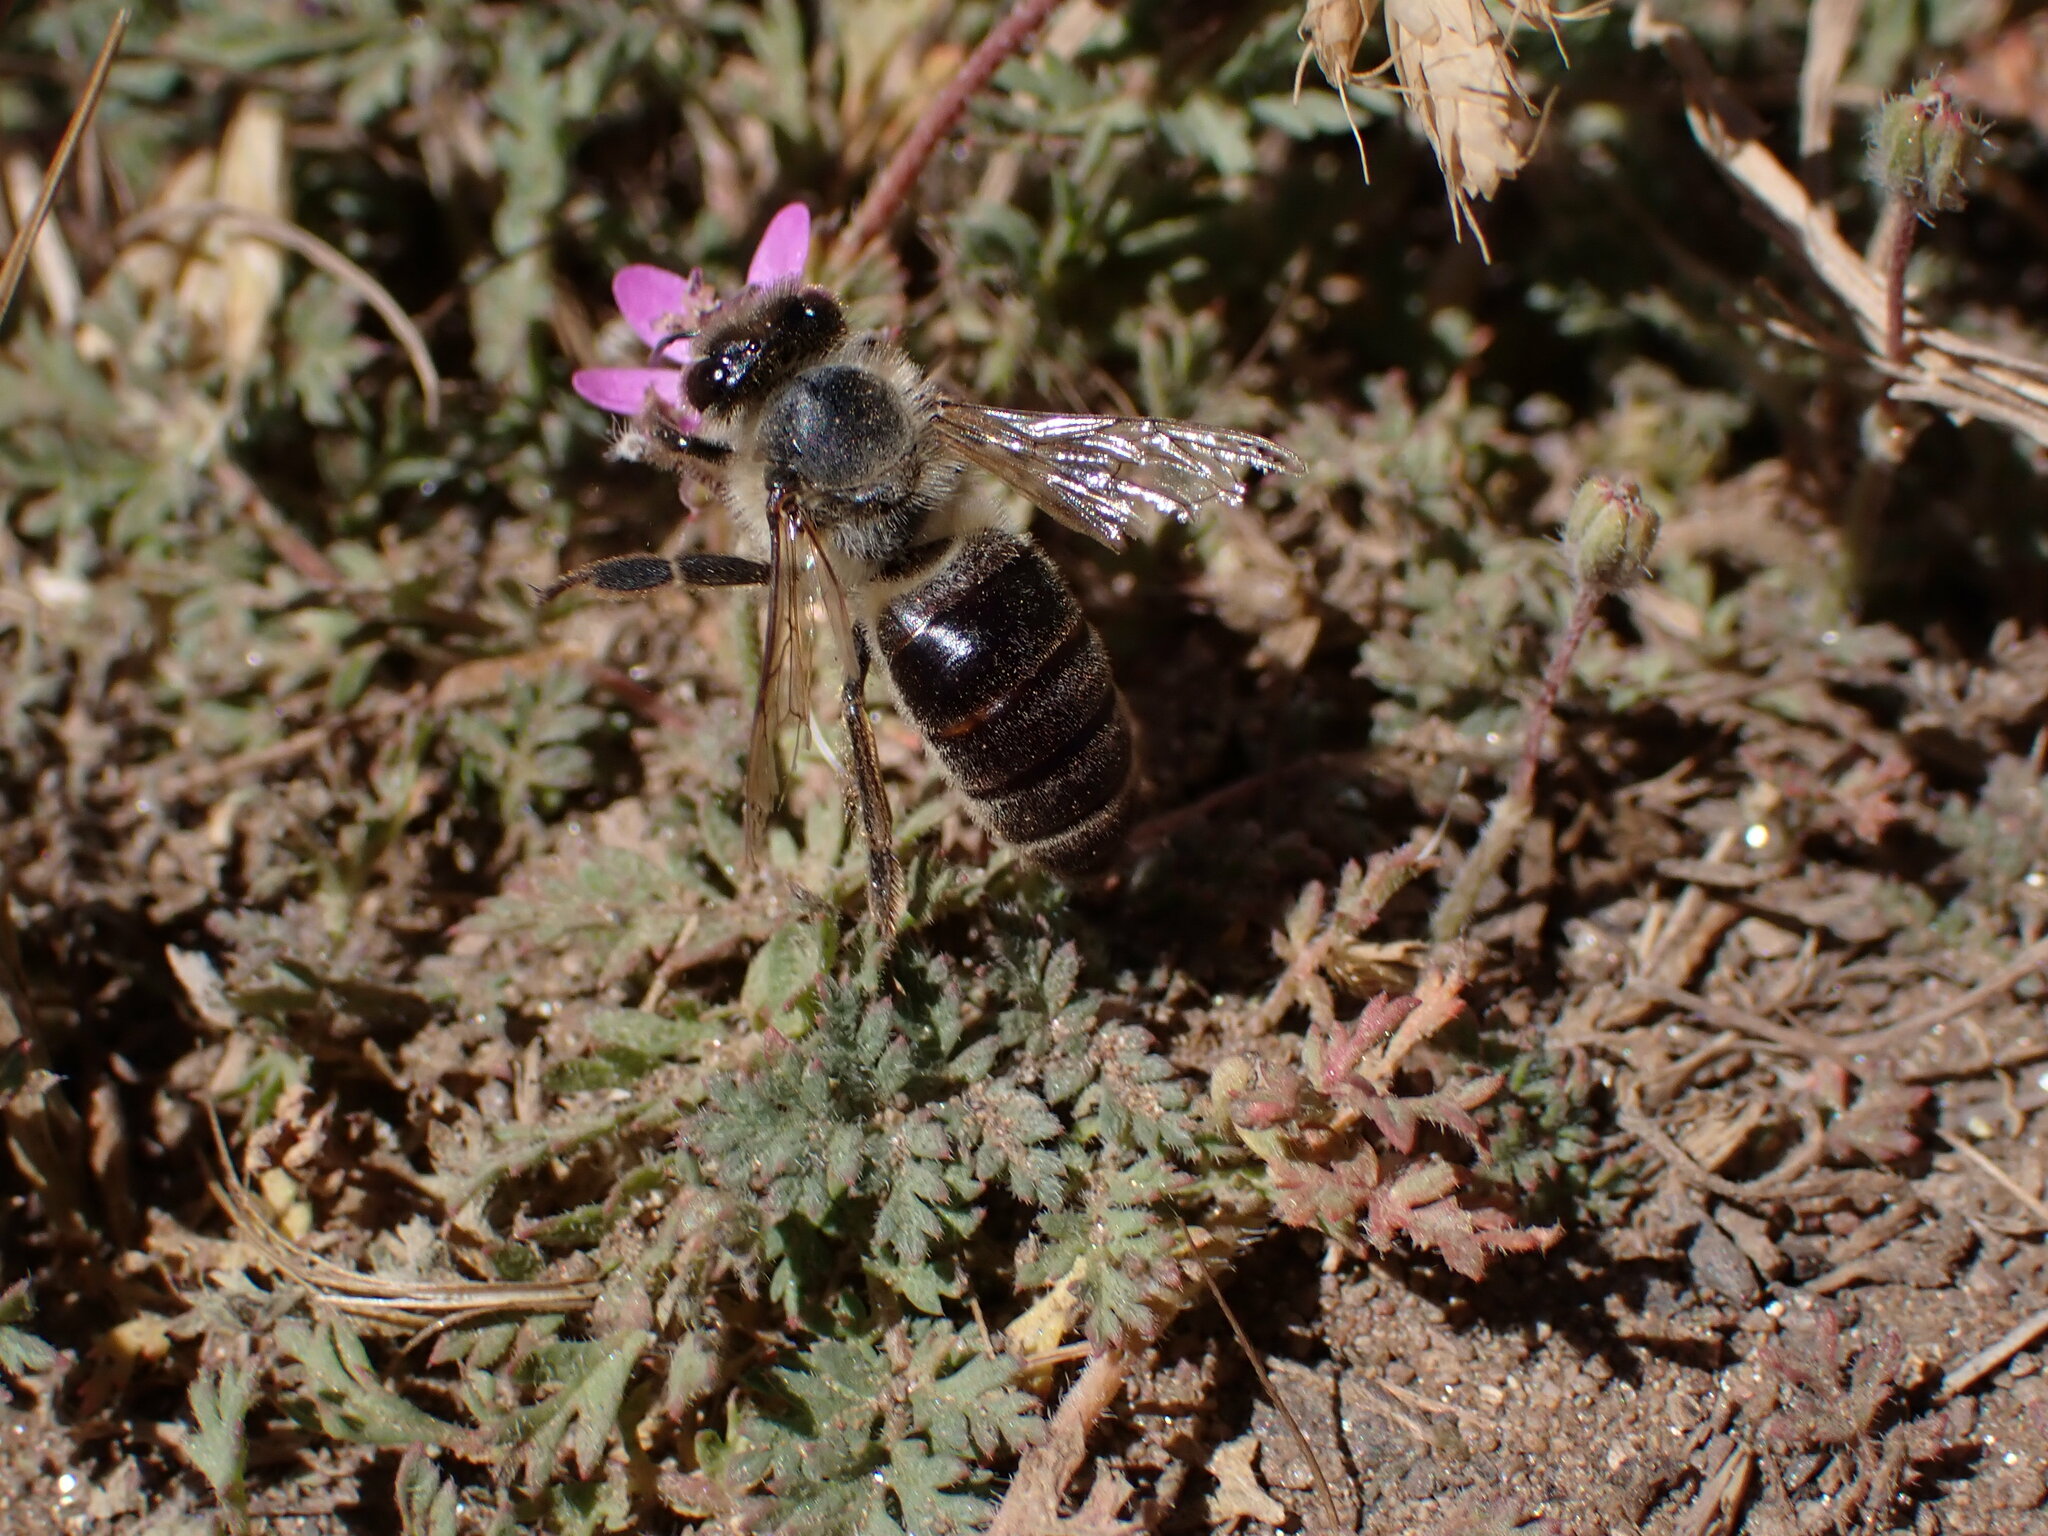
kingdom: Animalia
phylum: Arthropoda
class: Insecta
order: Hymenoptera
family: Apidae
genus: Apis
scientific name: Apis mellifera
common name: Honey bee
